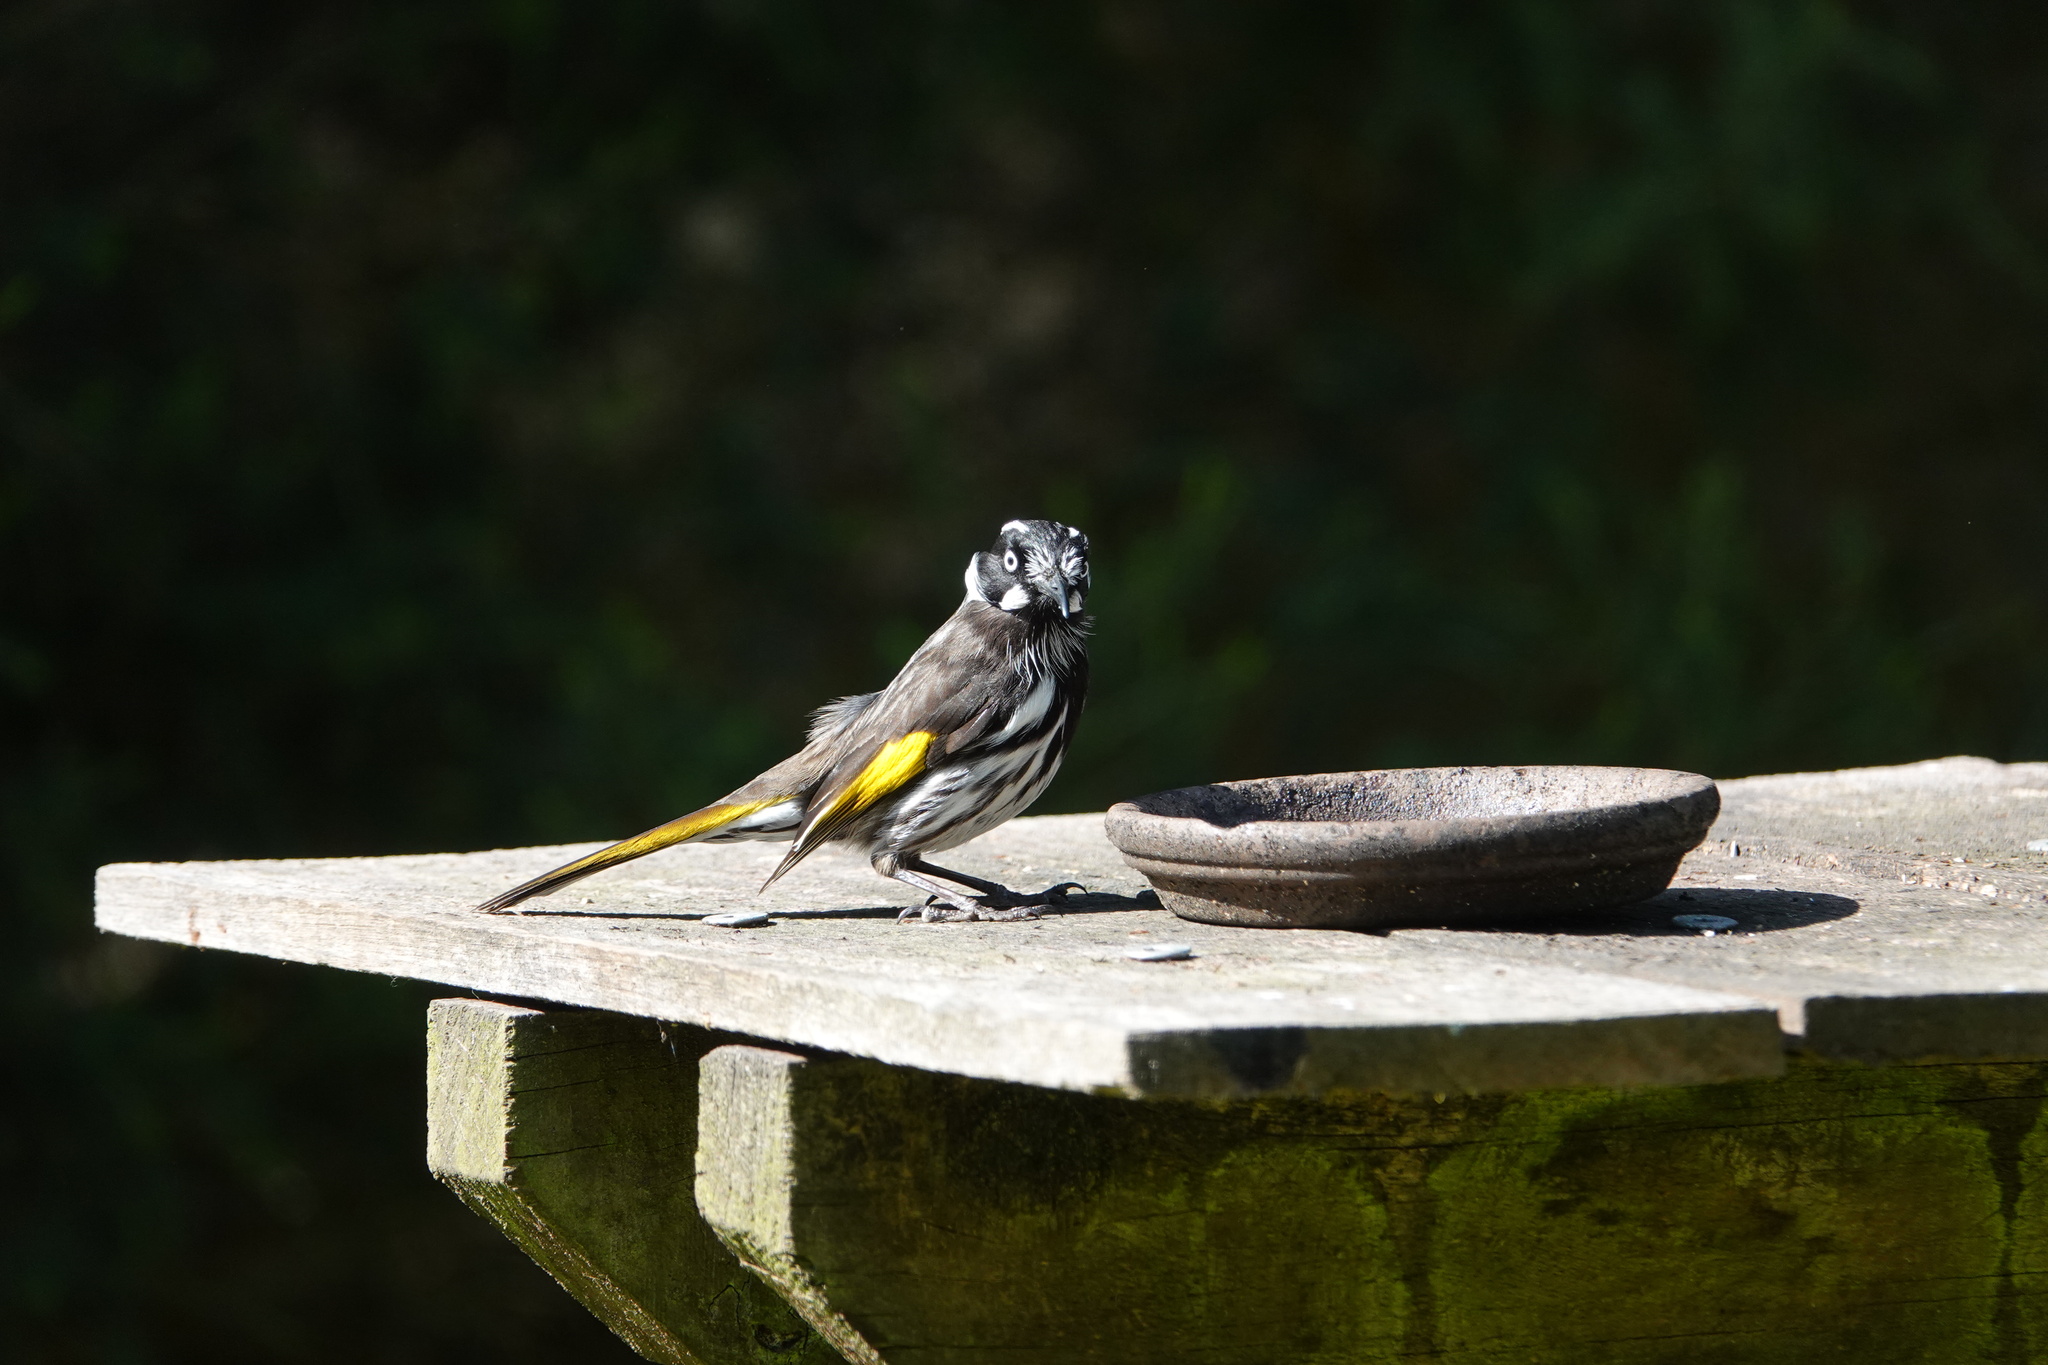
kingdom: Animalia
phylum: Chordata
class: Aves
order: Passeriformes
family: Meliphagidae
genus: Phylidonyris
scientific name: Phylidonyris novaehollandiae
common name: New holland honeyeater
